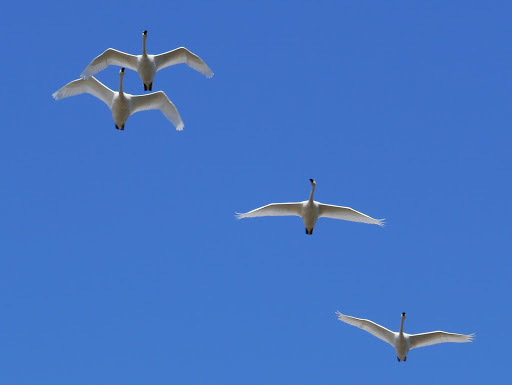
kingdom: Animalia
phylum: Chordata
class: Aves
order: Anseriformes
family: Anatidae
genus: Cygnus
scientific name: Cygnus columbianus
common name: Tundra swan
